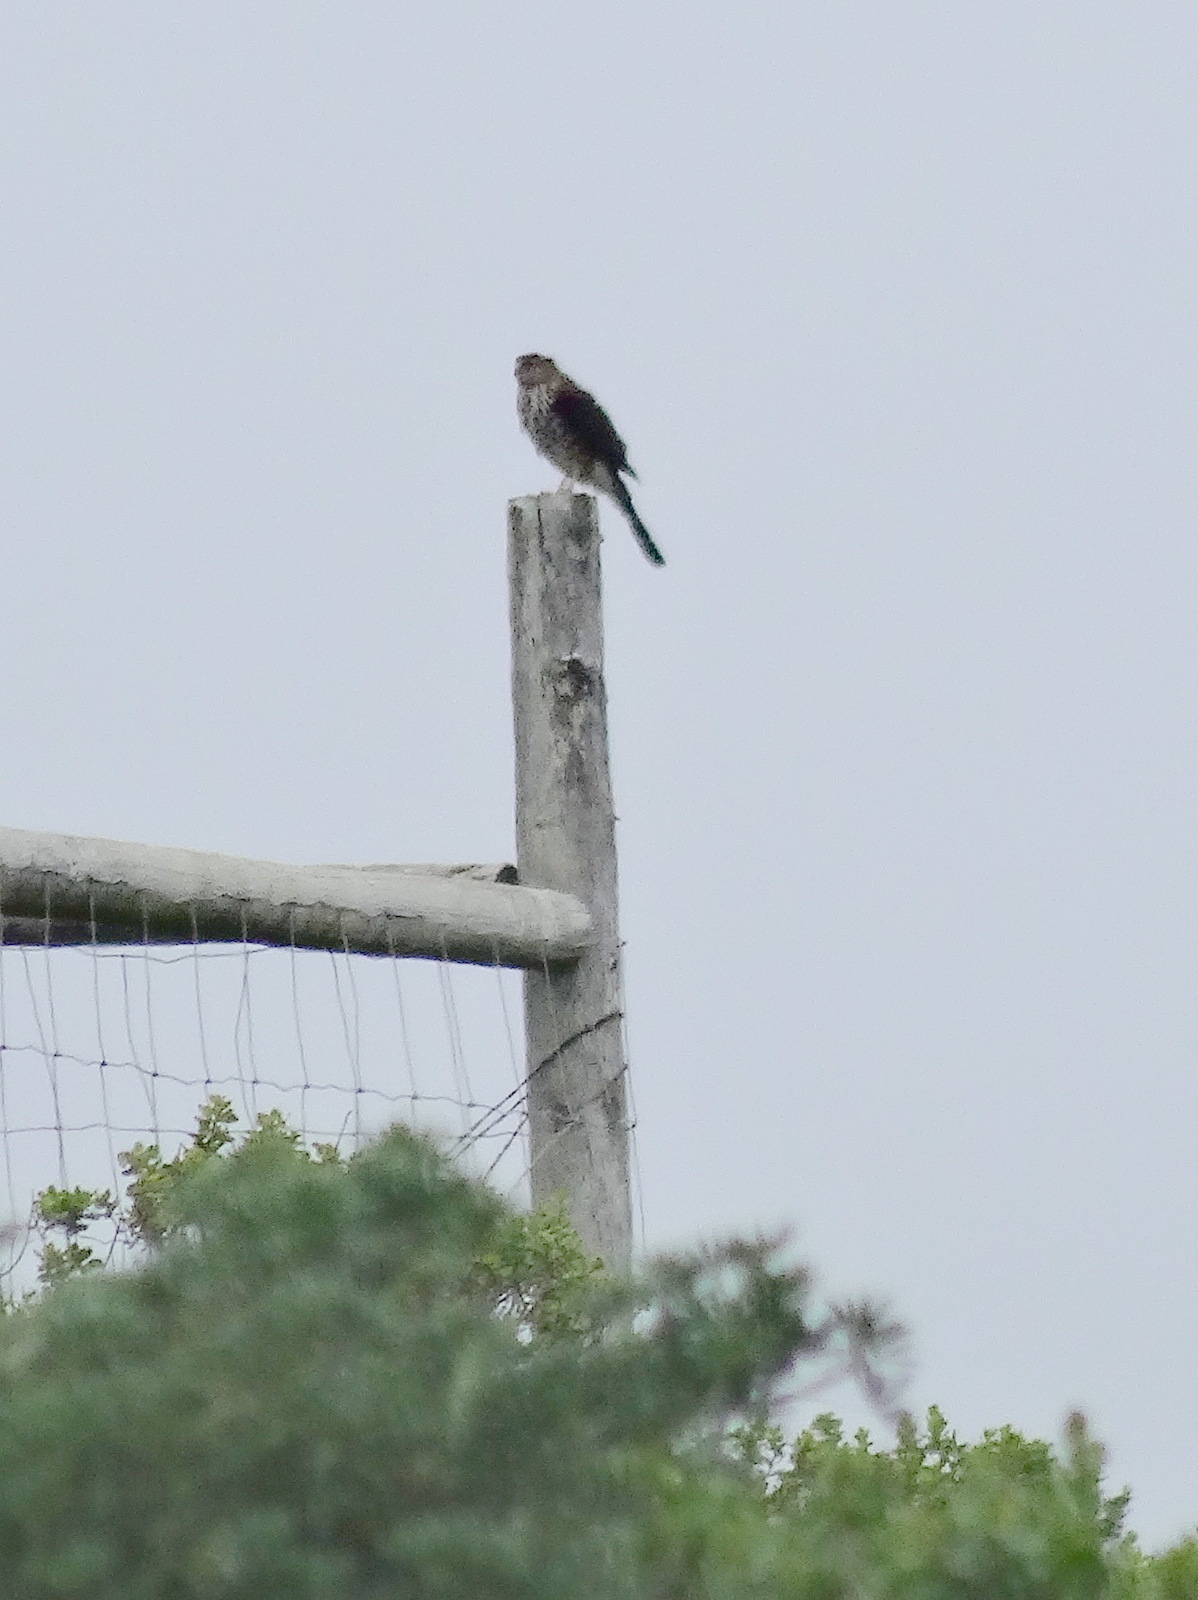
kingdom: Animalia
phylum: Chordata
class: Aves
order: Accipitriformes
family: Accipitridae
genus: Accipiter
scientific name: Accipiter striatus
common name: Sharp-shinned hawk
